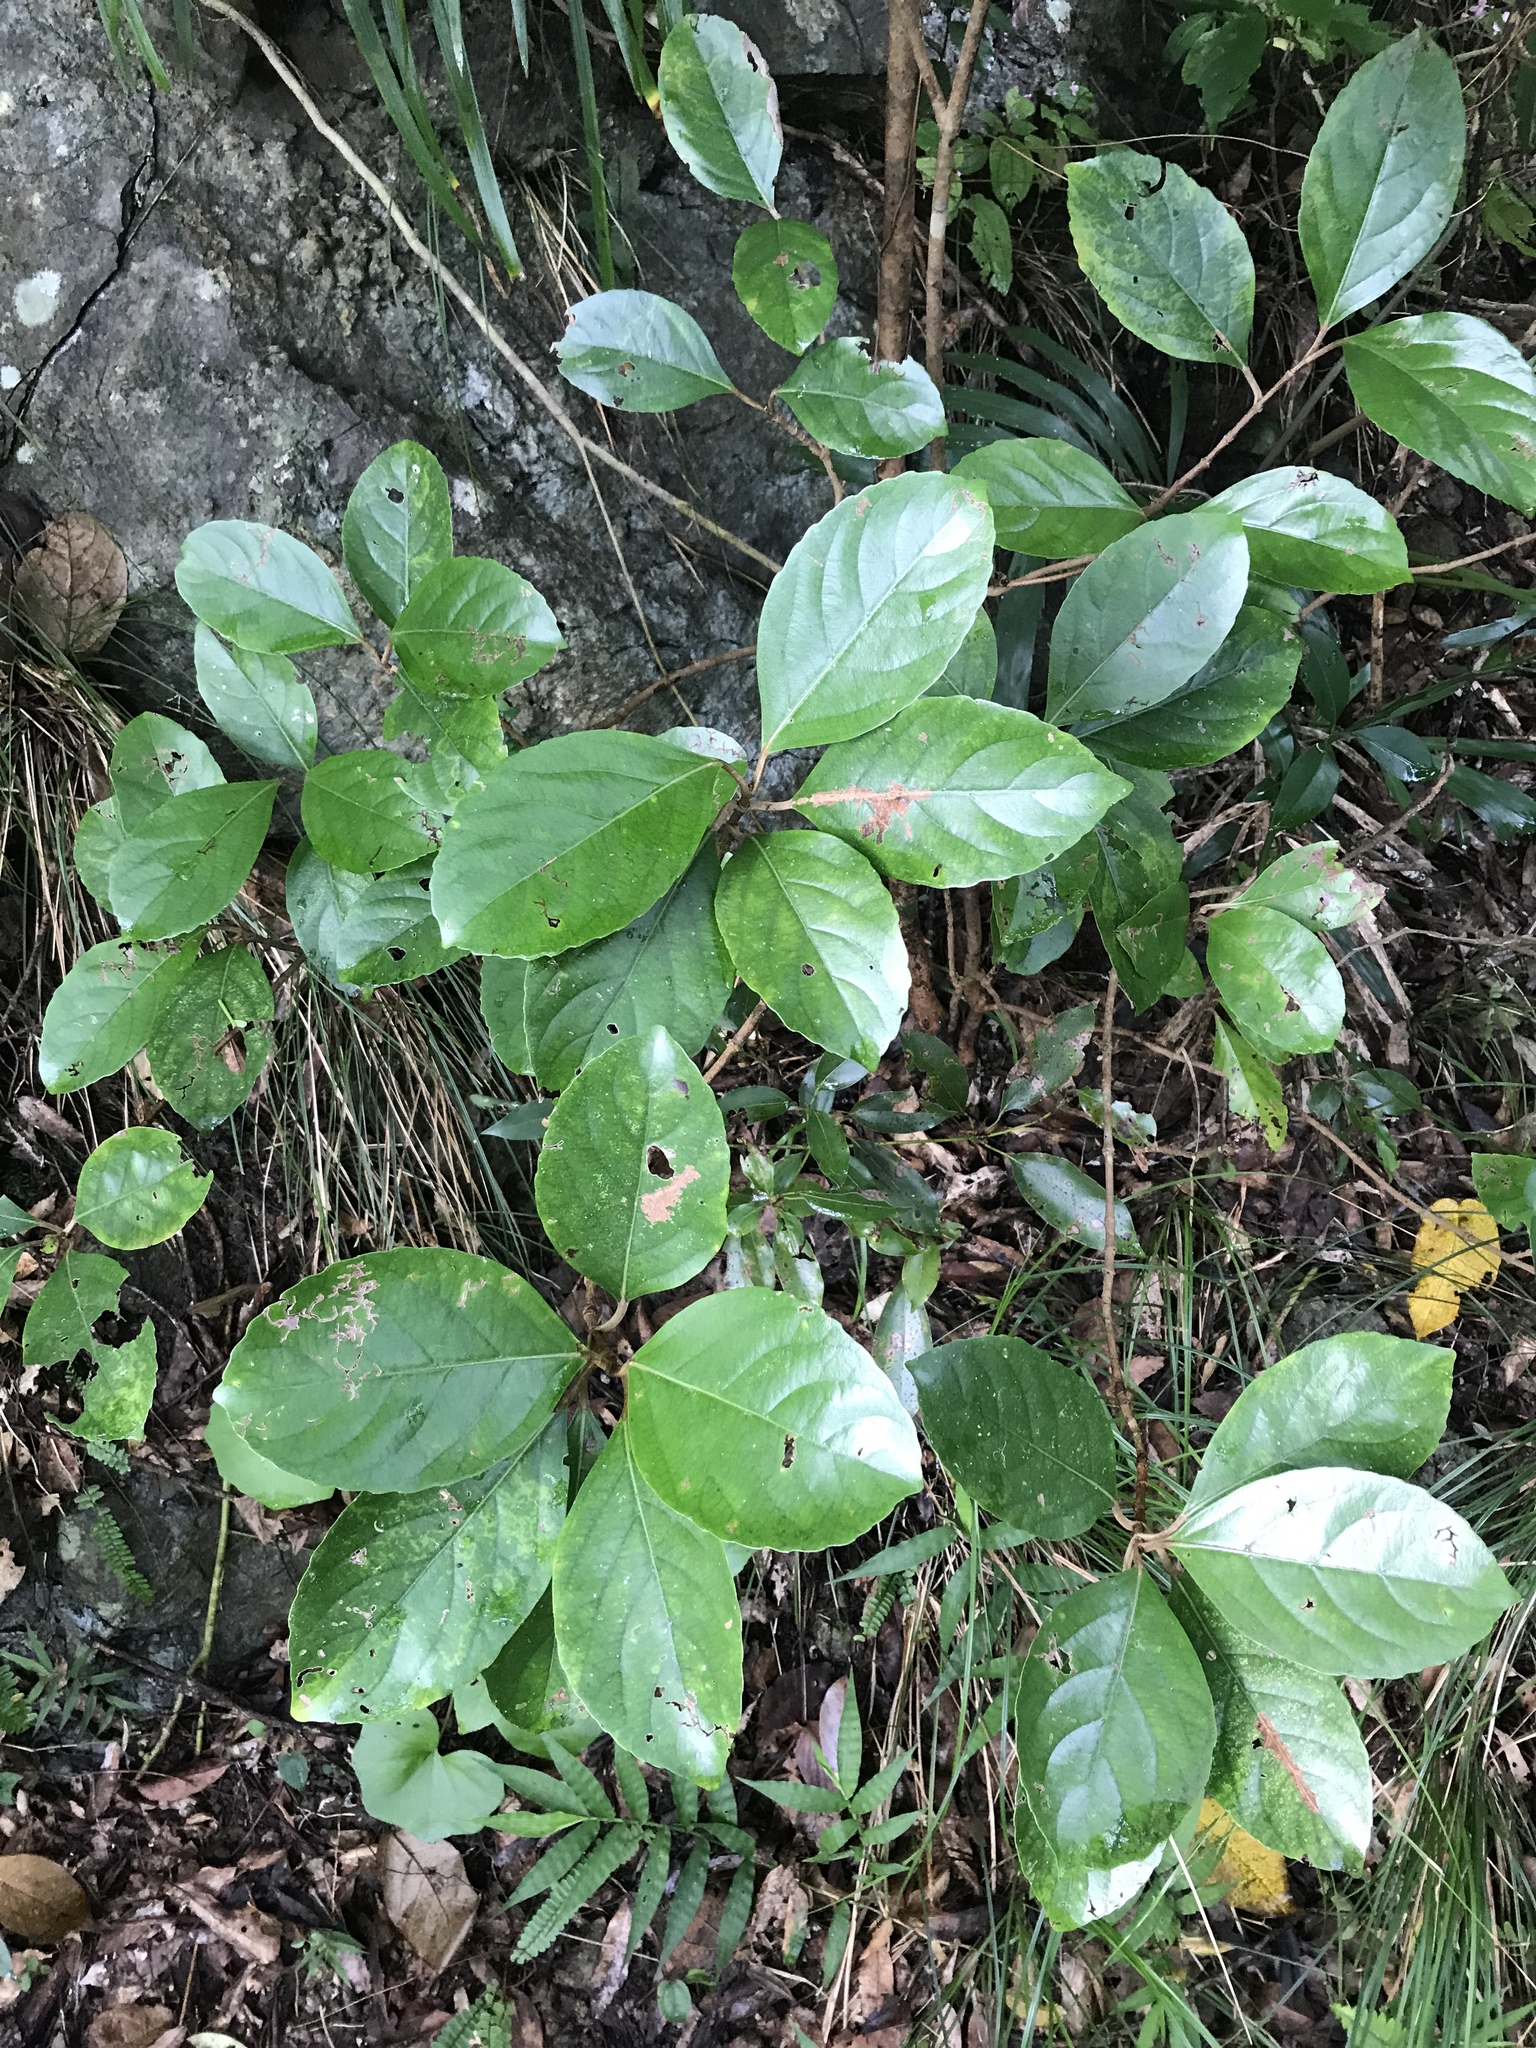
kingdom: Plantae
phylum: Tracheophyta
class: Magnoliopsida
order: Dipsacales
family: Viburnaceae
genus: Viburnum
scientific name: Viburnum odoratissimum
